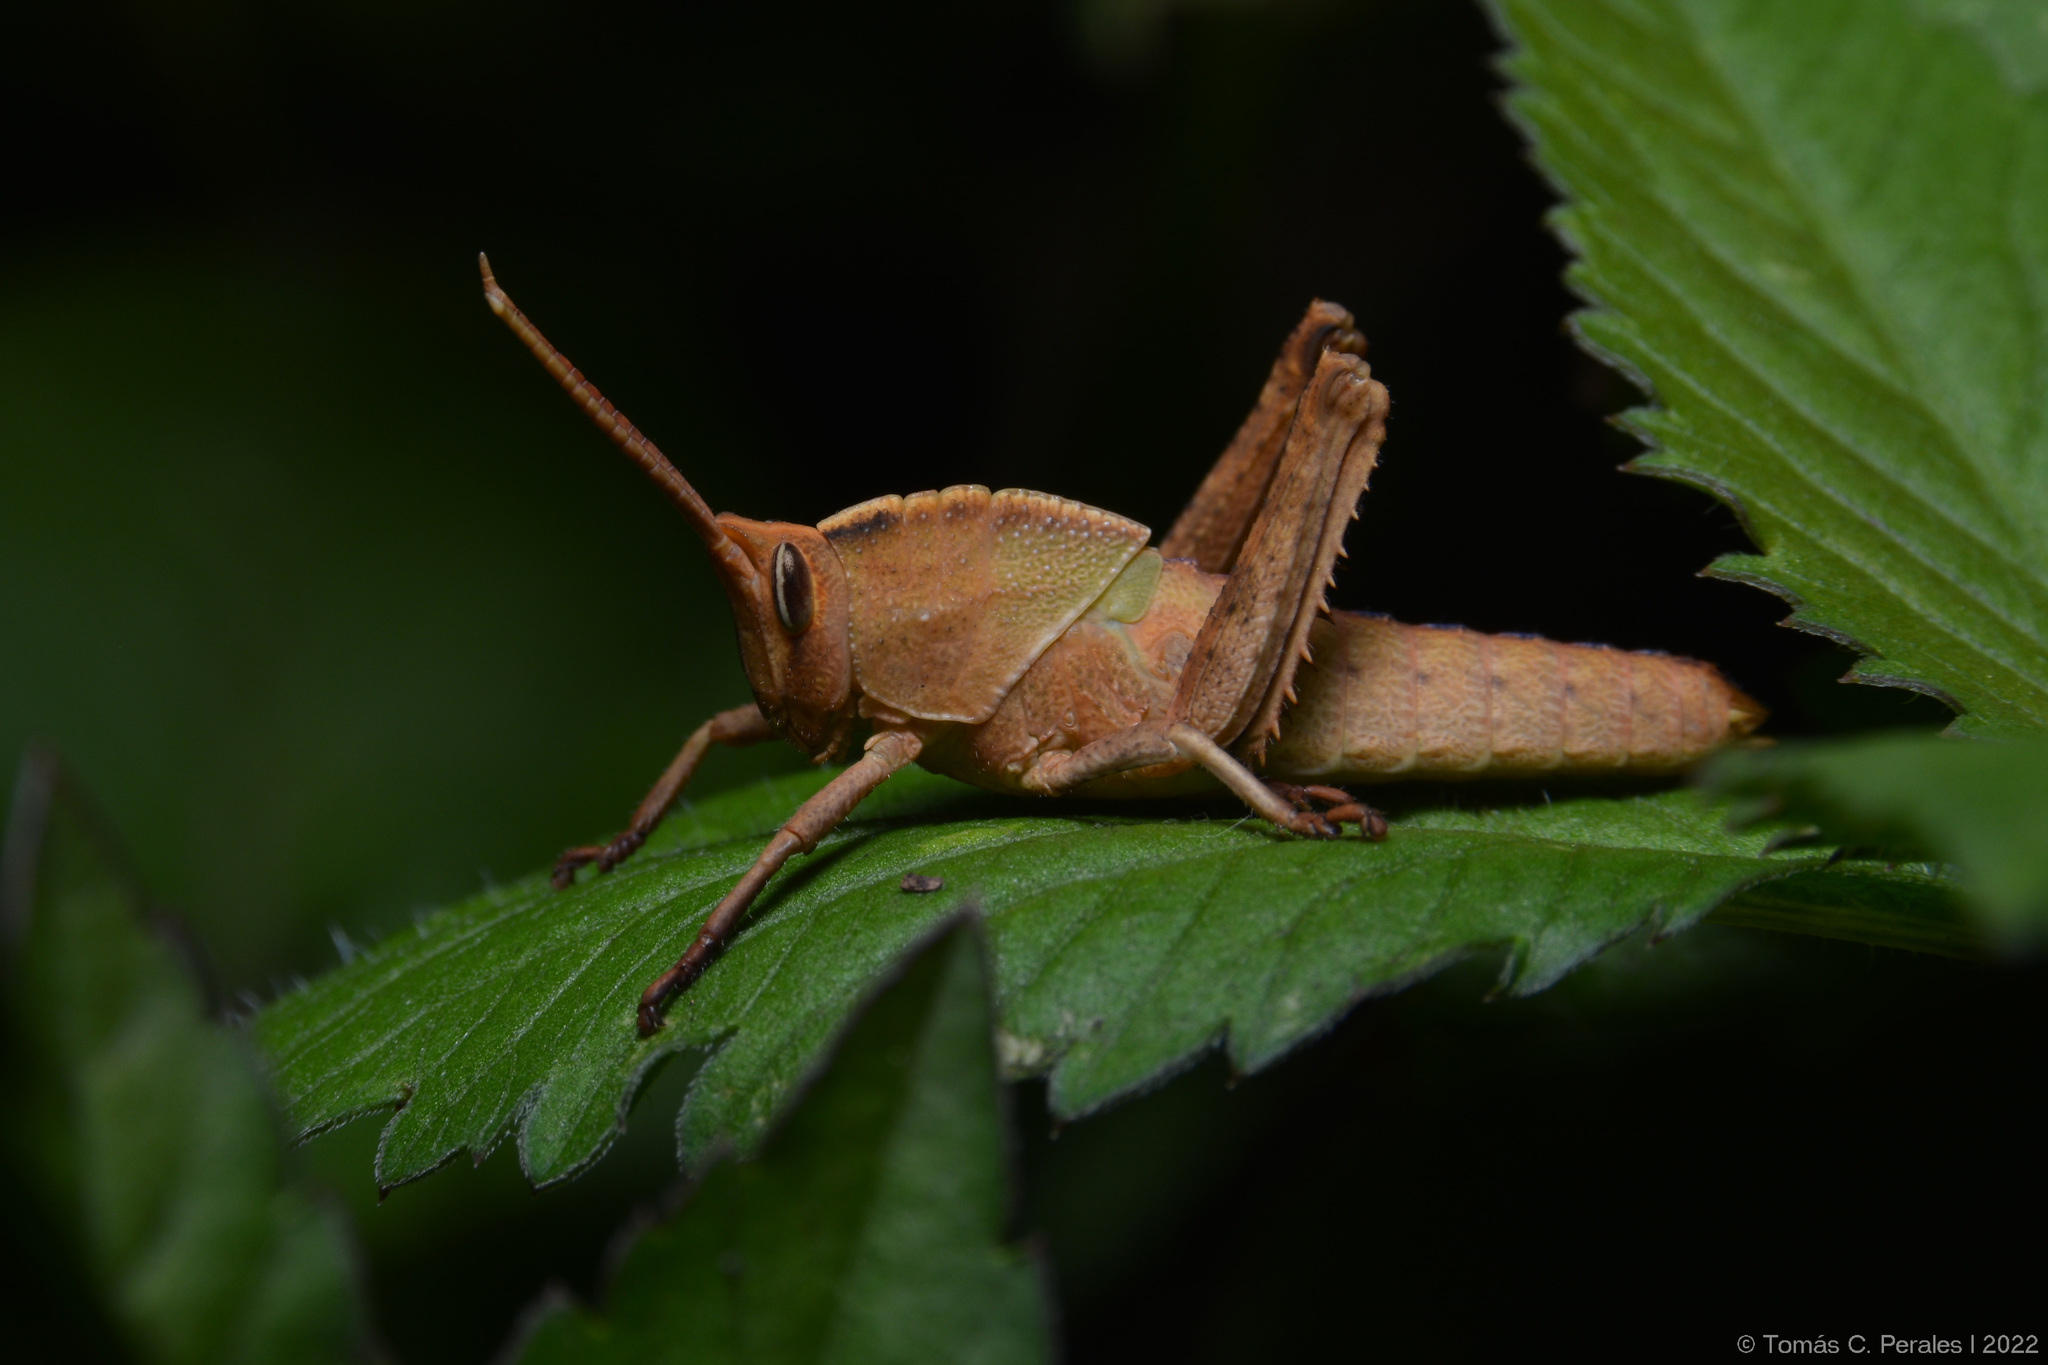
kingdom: Animalia
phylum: Arthropoda
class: Insecta
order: Orthoptera
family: Romaleidae
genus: Staleochlora
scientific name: Staleochlora viridicata
